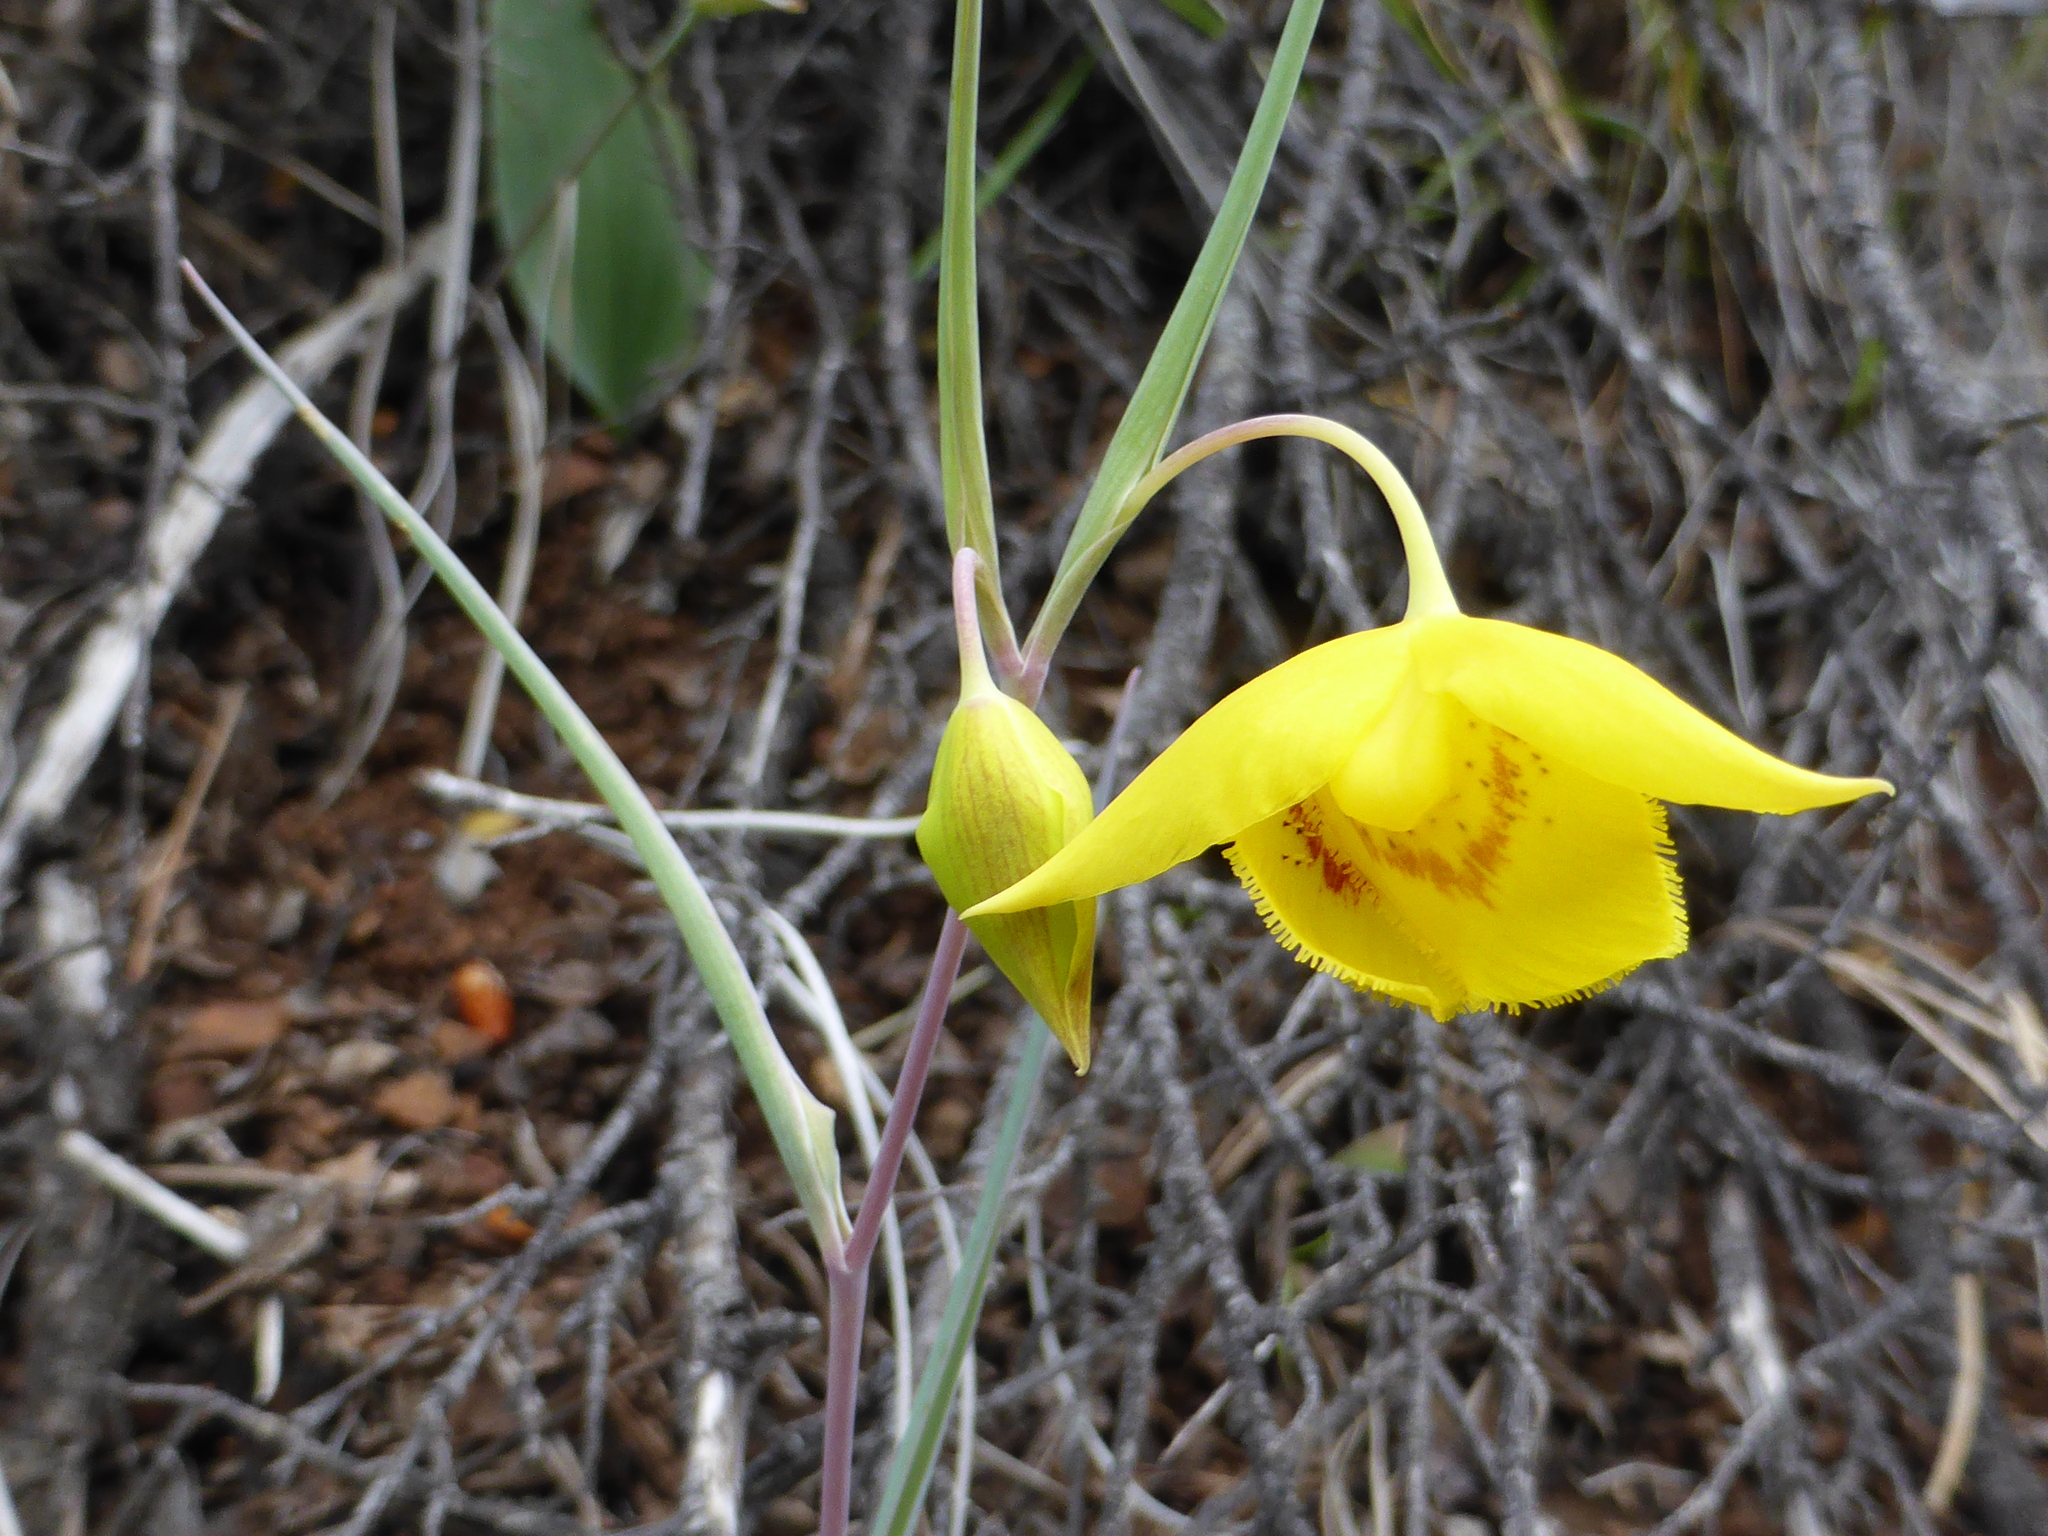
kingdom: Plantae
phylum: Tracheophyta
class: Liliopsida
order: Liliales
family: Liliaceae
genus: Calochortus
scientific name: Calochortus amabilis
